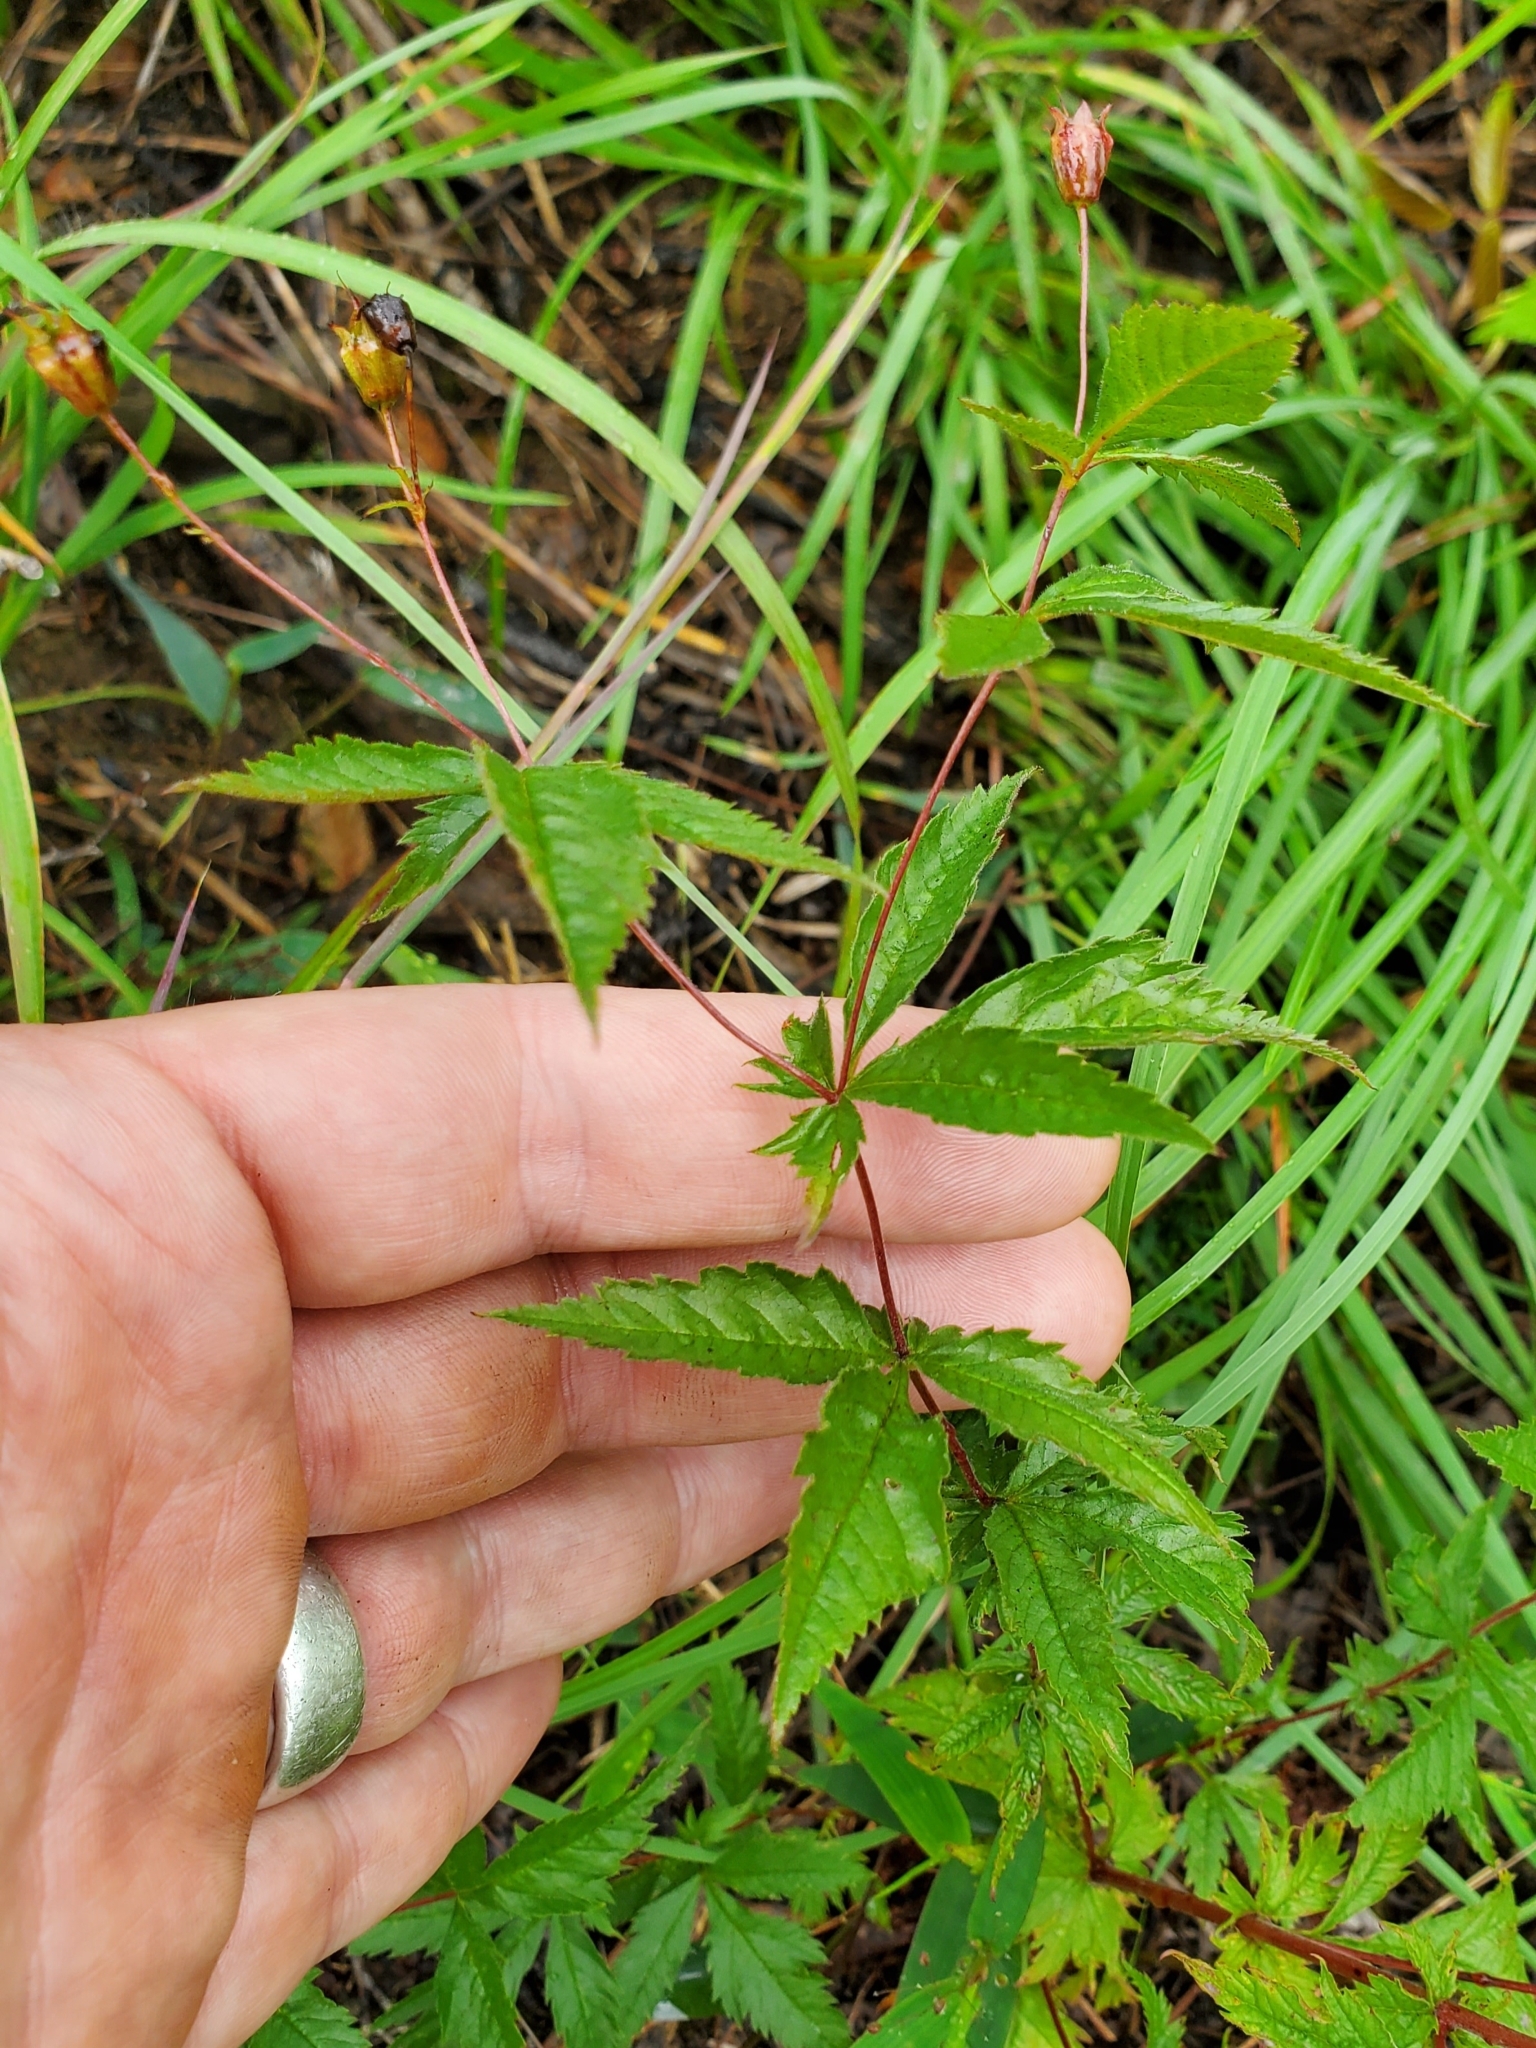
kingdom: Plantae
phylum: Tracheophyta
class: Magnoliopsida
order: Rosales
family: Rosaceae
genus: Gillenia
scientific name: Gillenia stipulata
